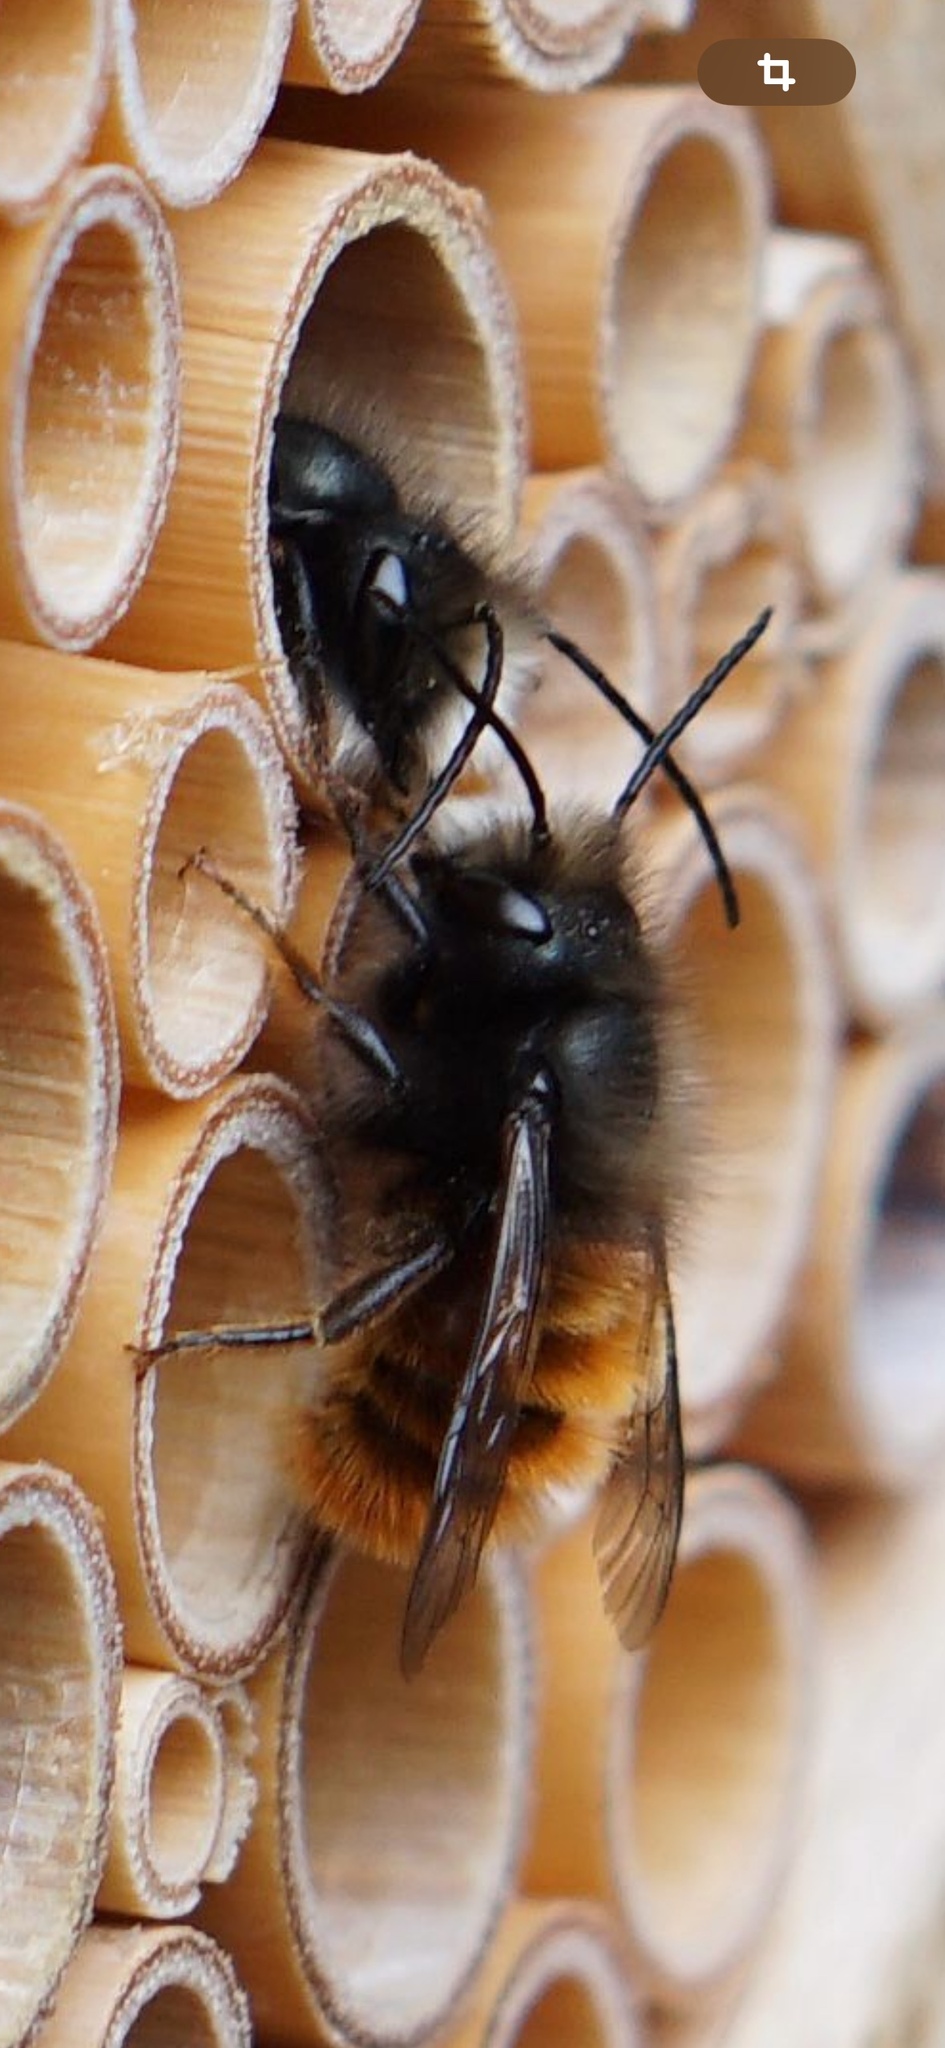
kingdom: Animalia
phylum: Arthropoda
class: Insecta
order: Hymenoptera
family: Megachilidae
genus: Osmia
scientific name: Osmia cornuta
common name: Mason bee
